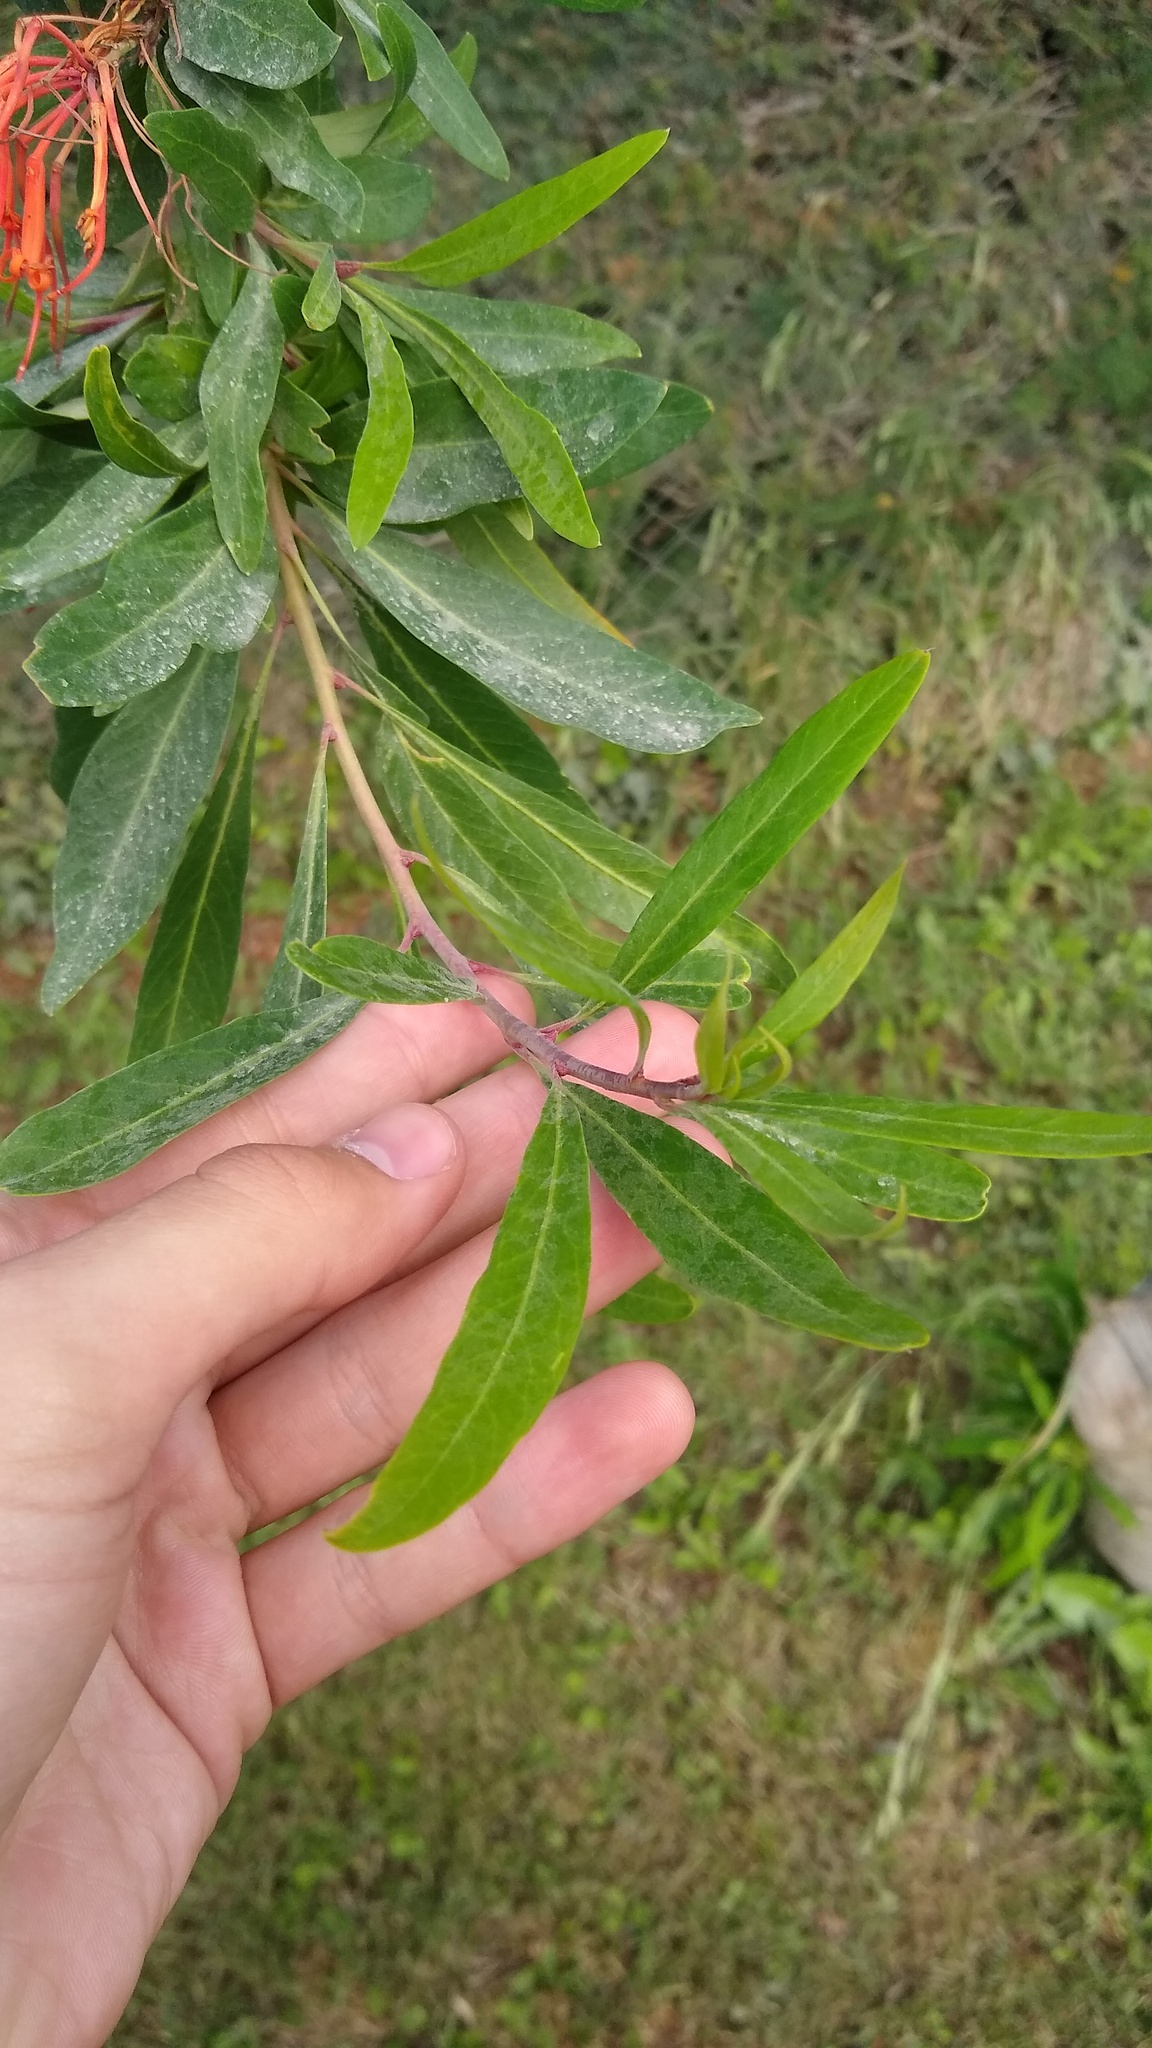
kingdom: Plantae
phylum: Tracheophyta
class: Magnoliopsida
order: Proteales
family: Proteaceae
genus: Embothrium
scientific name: Embothrium coccineum
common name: Chilean firebush
